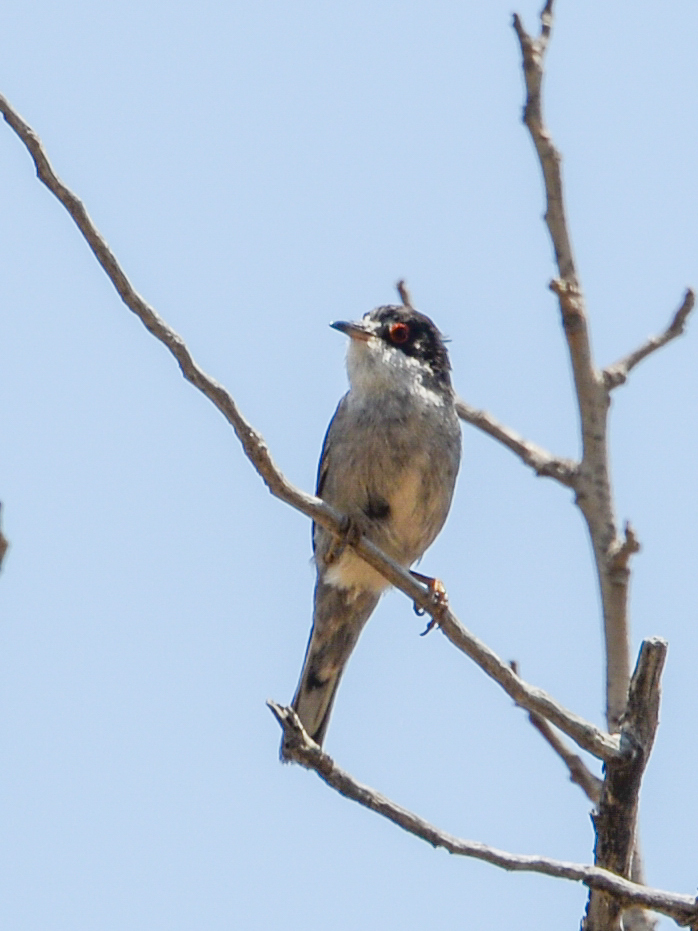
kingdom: Animalia
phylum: Chordata
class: Aves
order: Passeriformes
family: Sylviidae
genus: Curruca
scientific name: Curruca melanocephala
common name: Sardinian warbler
